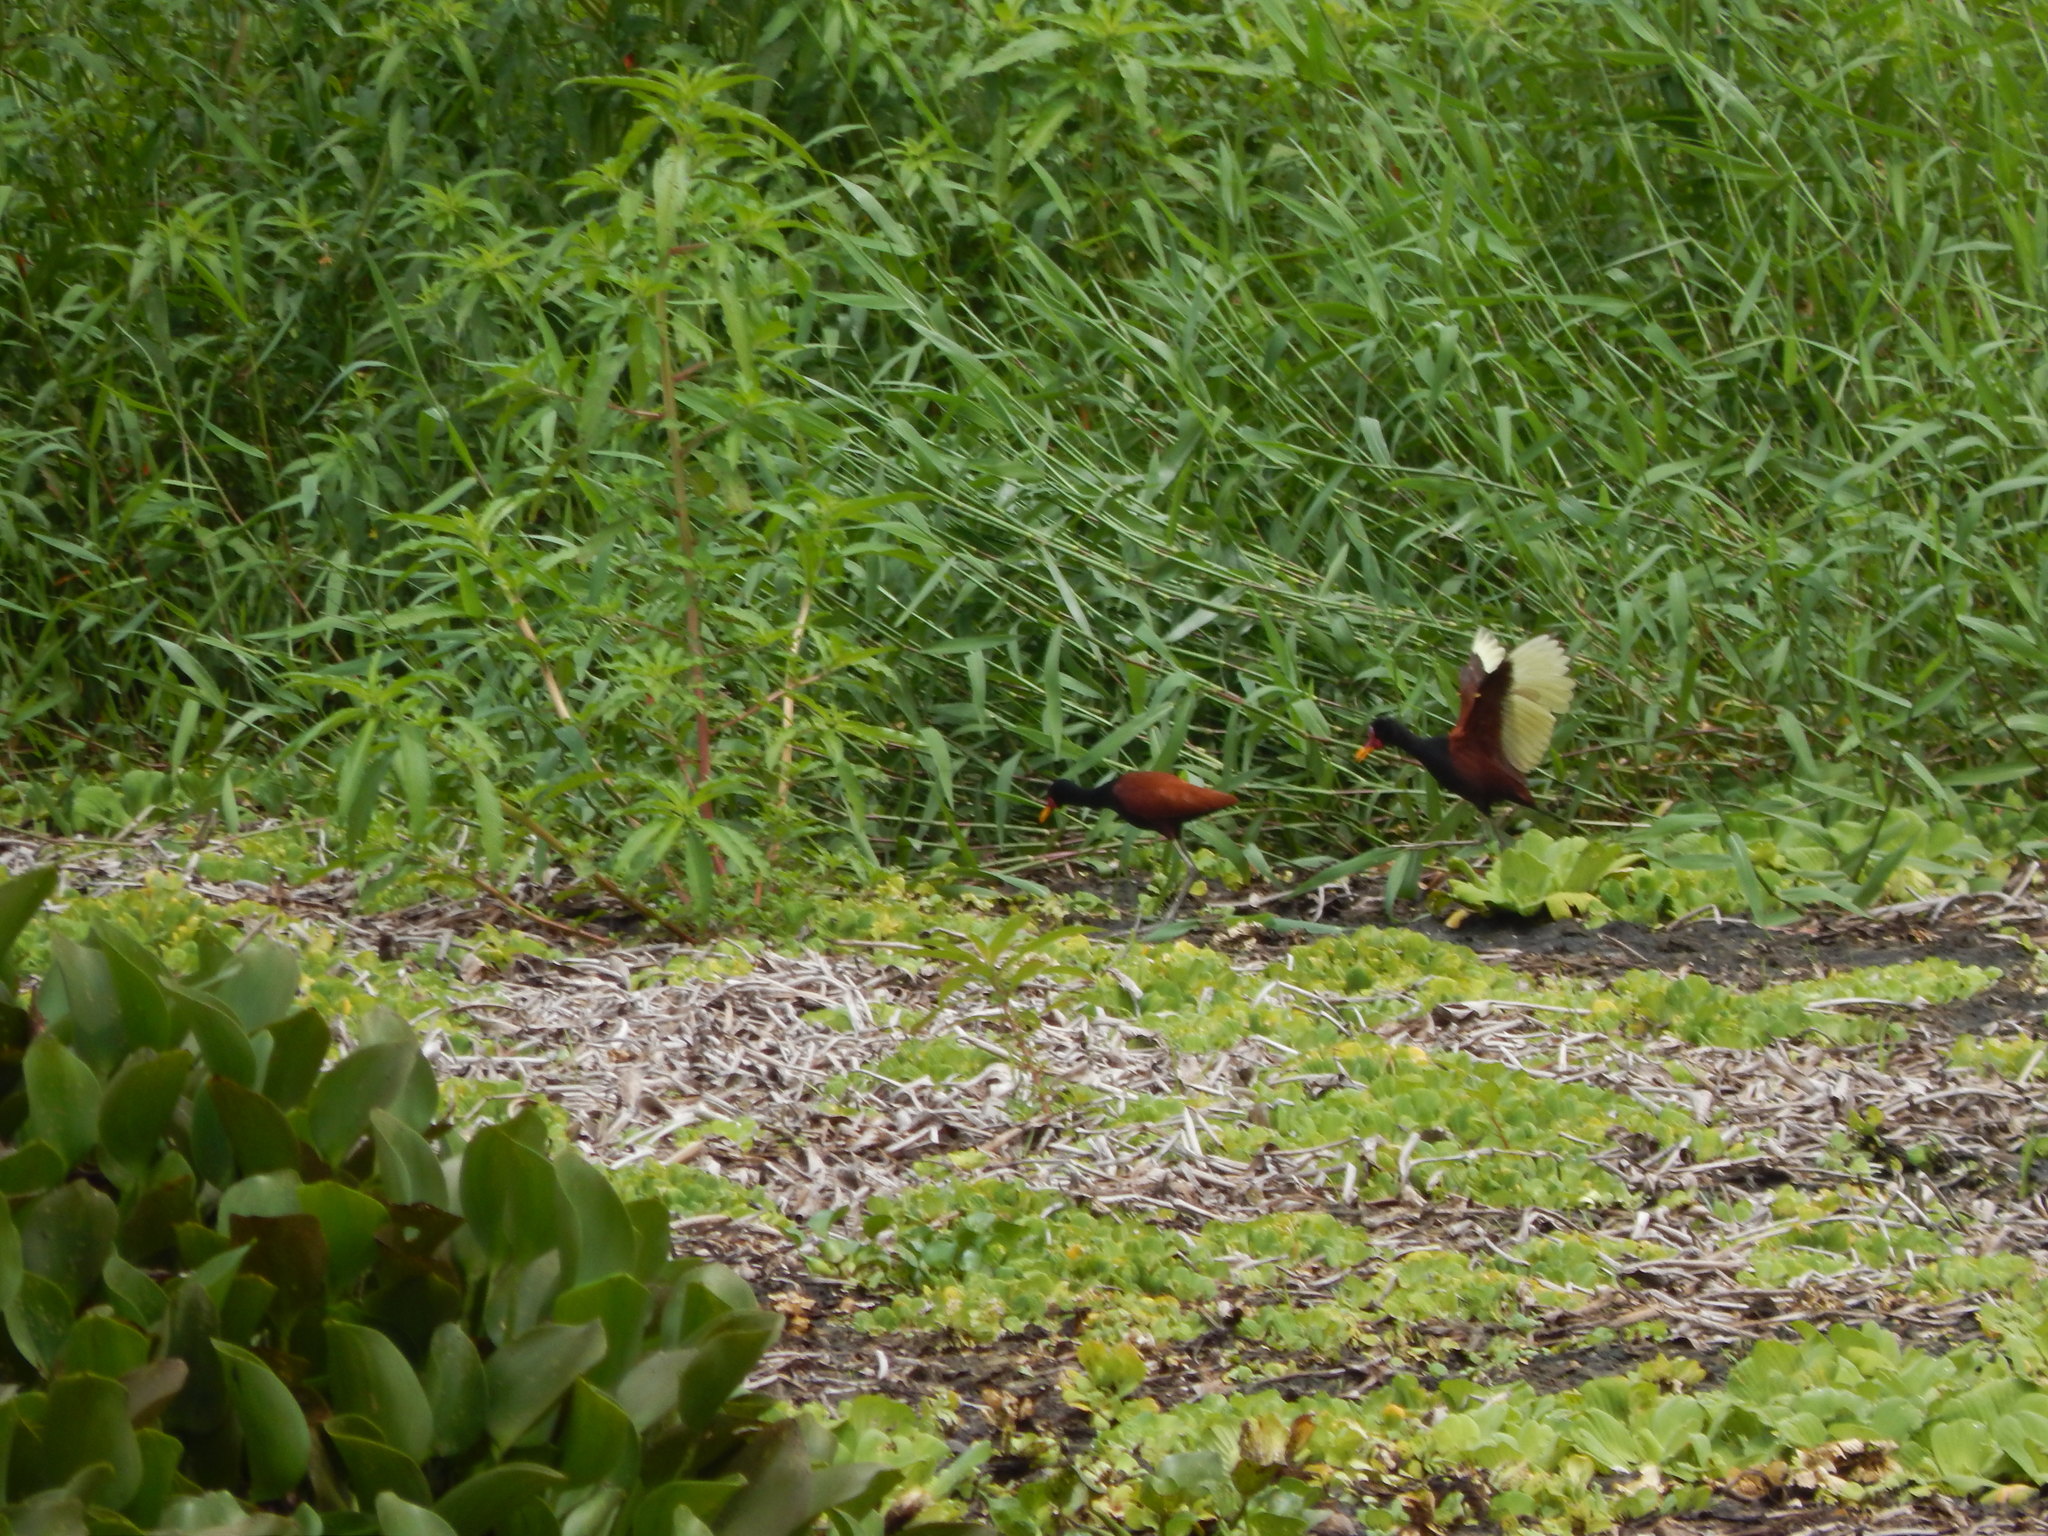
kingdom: Animalia
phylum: Chordata
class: Aves
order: Charadriiformes
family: Jacanidae
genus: Jacana
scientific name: Jacana jacana
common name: Wattled jacana
